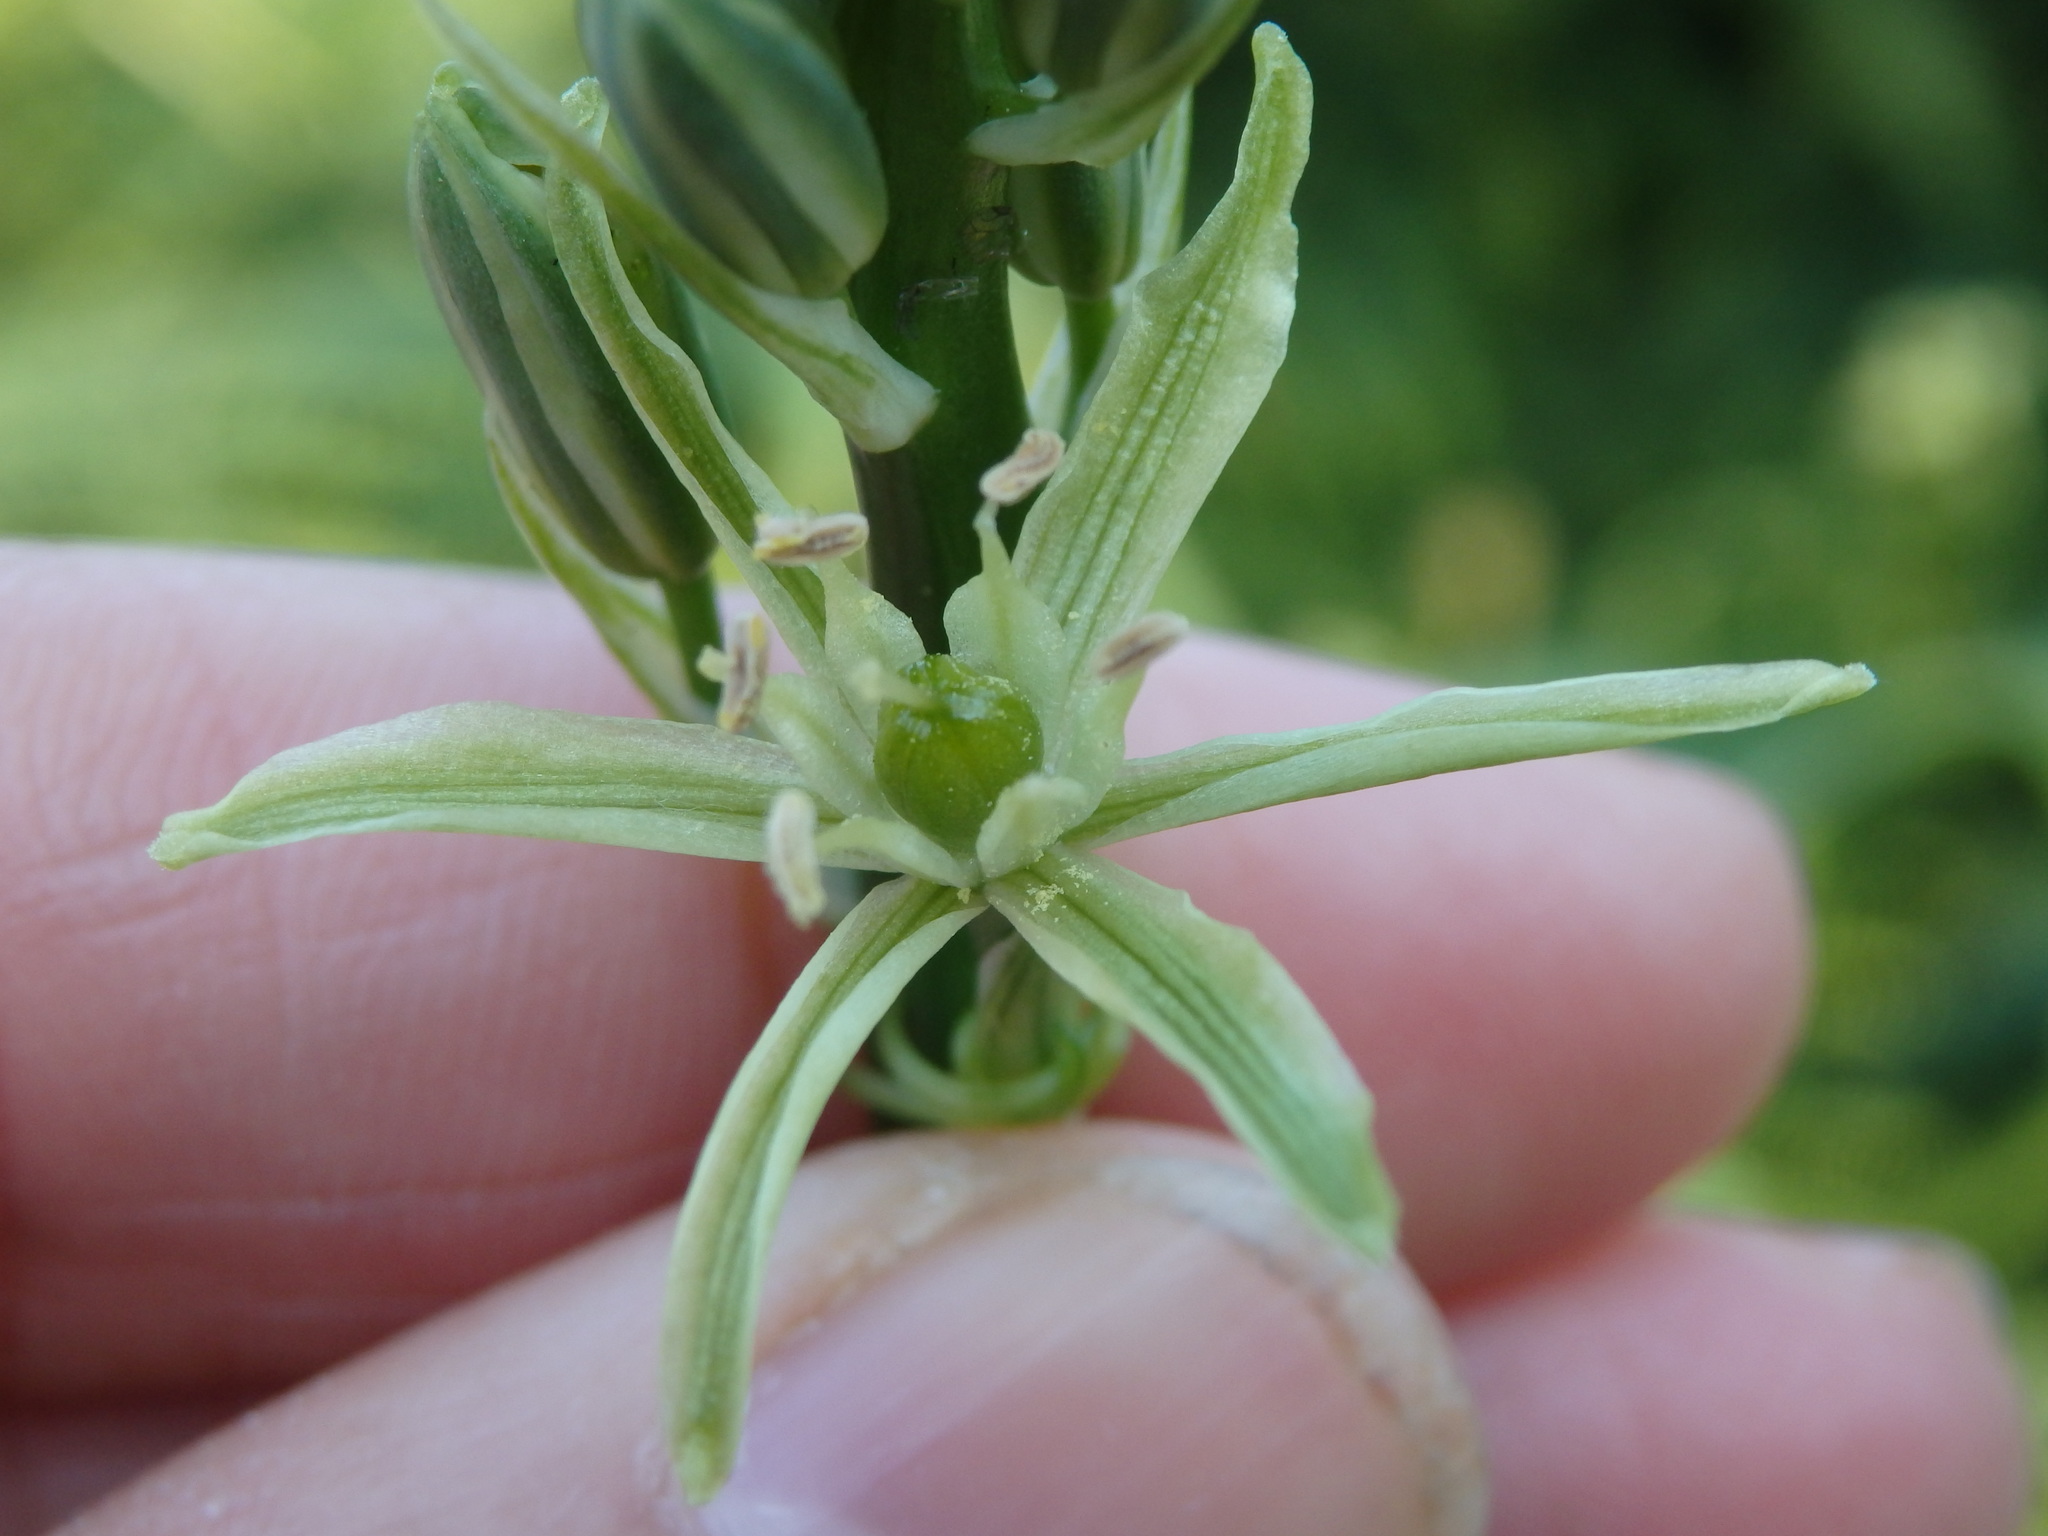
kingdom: Plantae
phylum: Tracheophyta
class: Liliopsida
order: Asparagales
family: Asparagaceae
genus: Ornithogalum
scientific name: Ornithogalum pyrenaicum
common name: Spiked star-of-bethlehem
